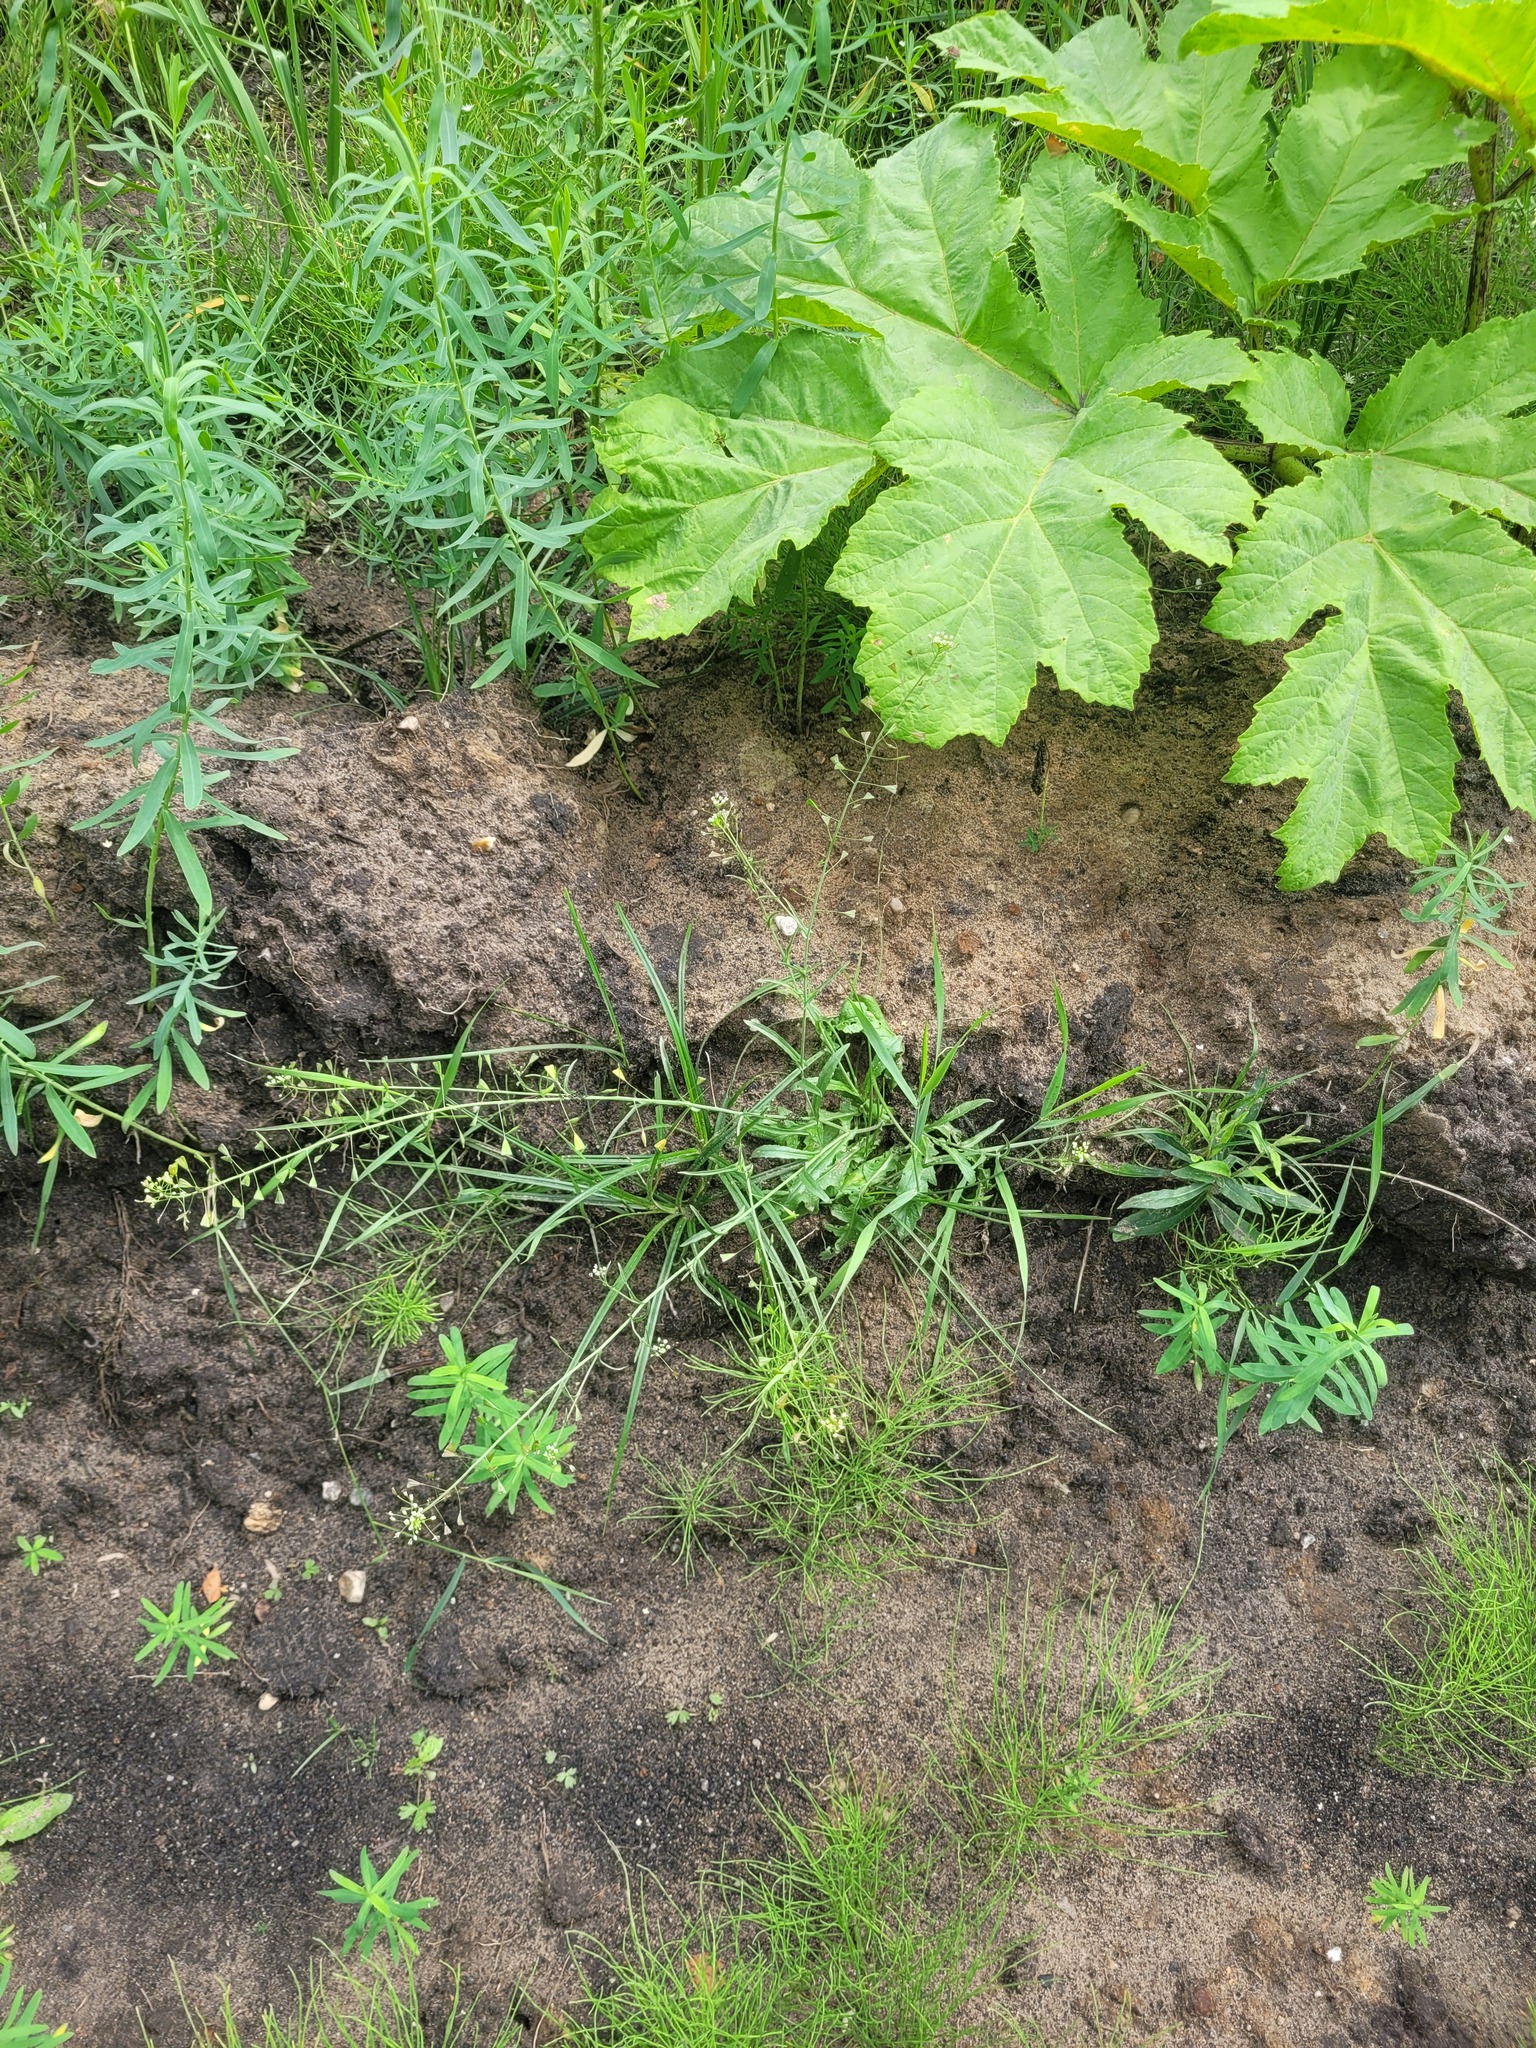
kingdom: Plantae
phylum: Tracheophyta
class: Magnoliopsida
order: Brassicales
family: Brassicaceae
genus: Capsella
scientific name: Capsella bursa-pastoris
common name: Shepherd's purse
